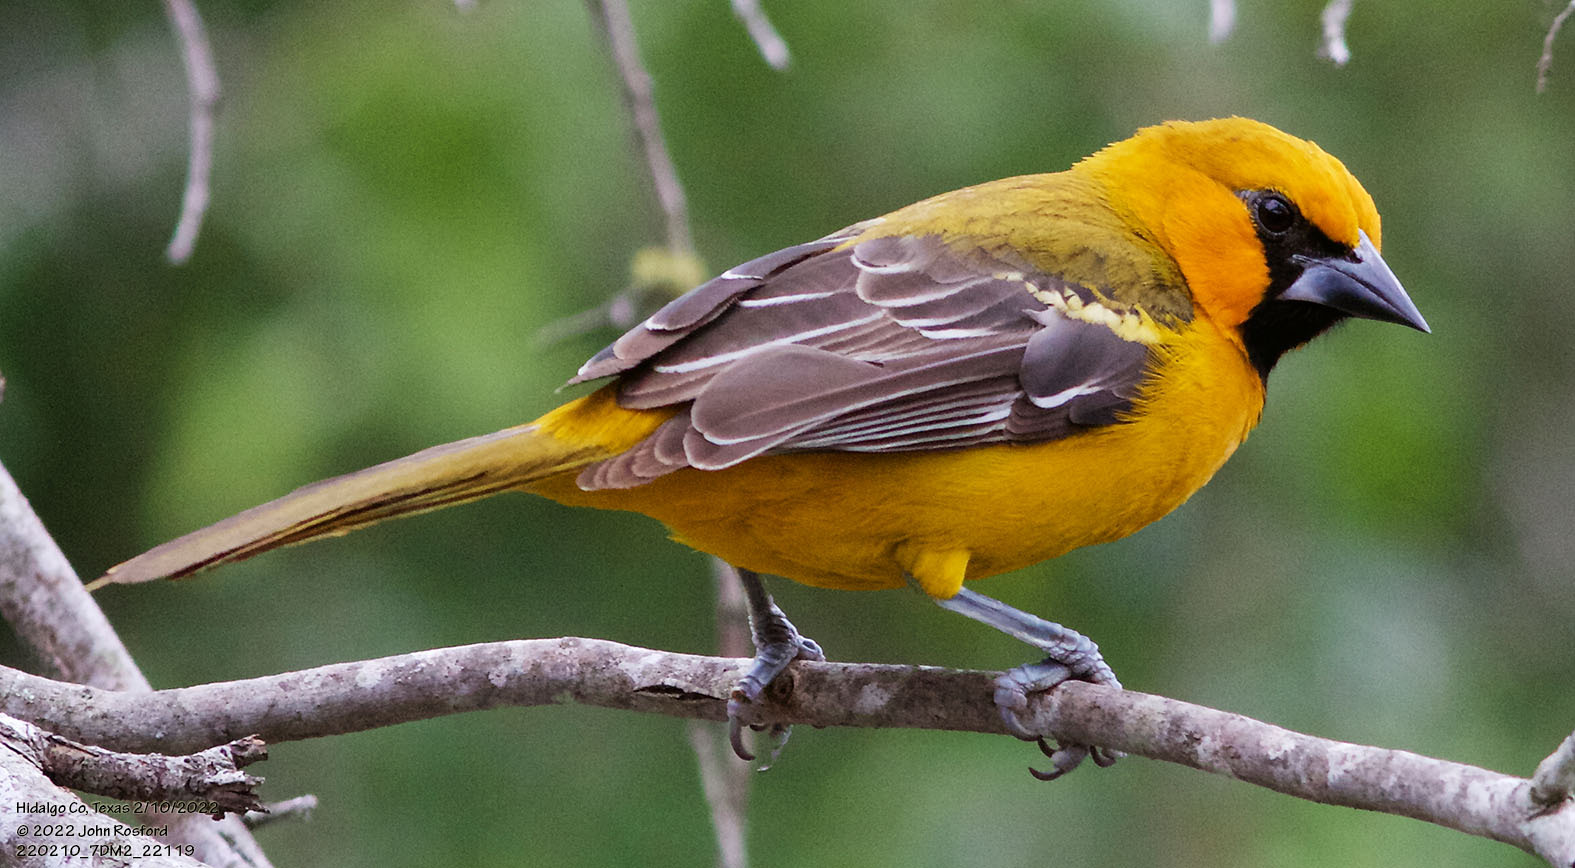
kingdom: Animalia
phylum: Chordata
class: Aves
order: Passeriformes
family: Icteridae
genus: Icterus
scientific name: Icterus gularis
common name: Altamira oriole
